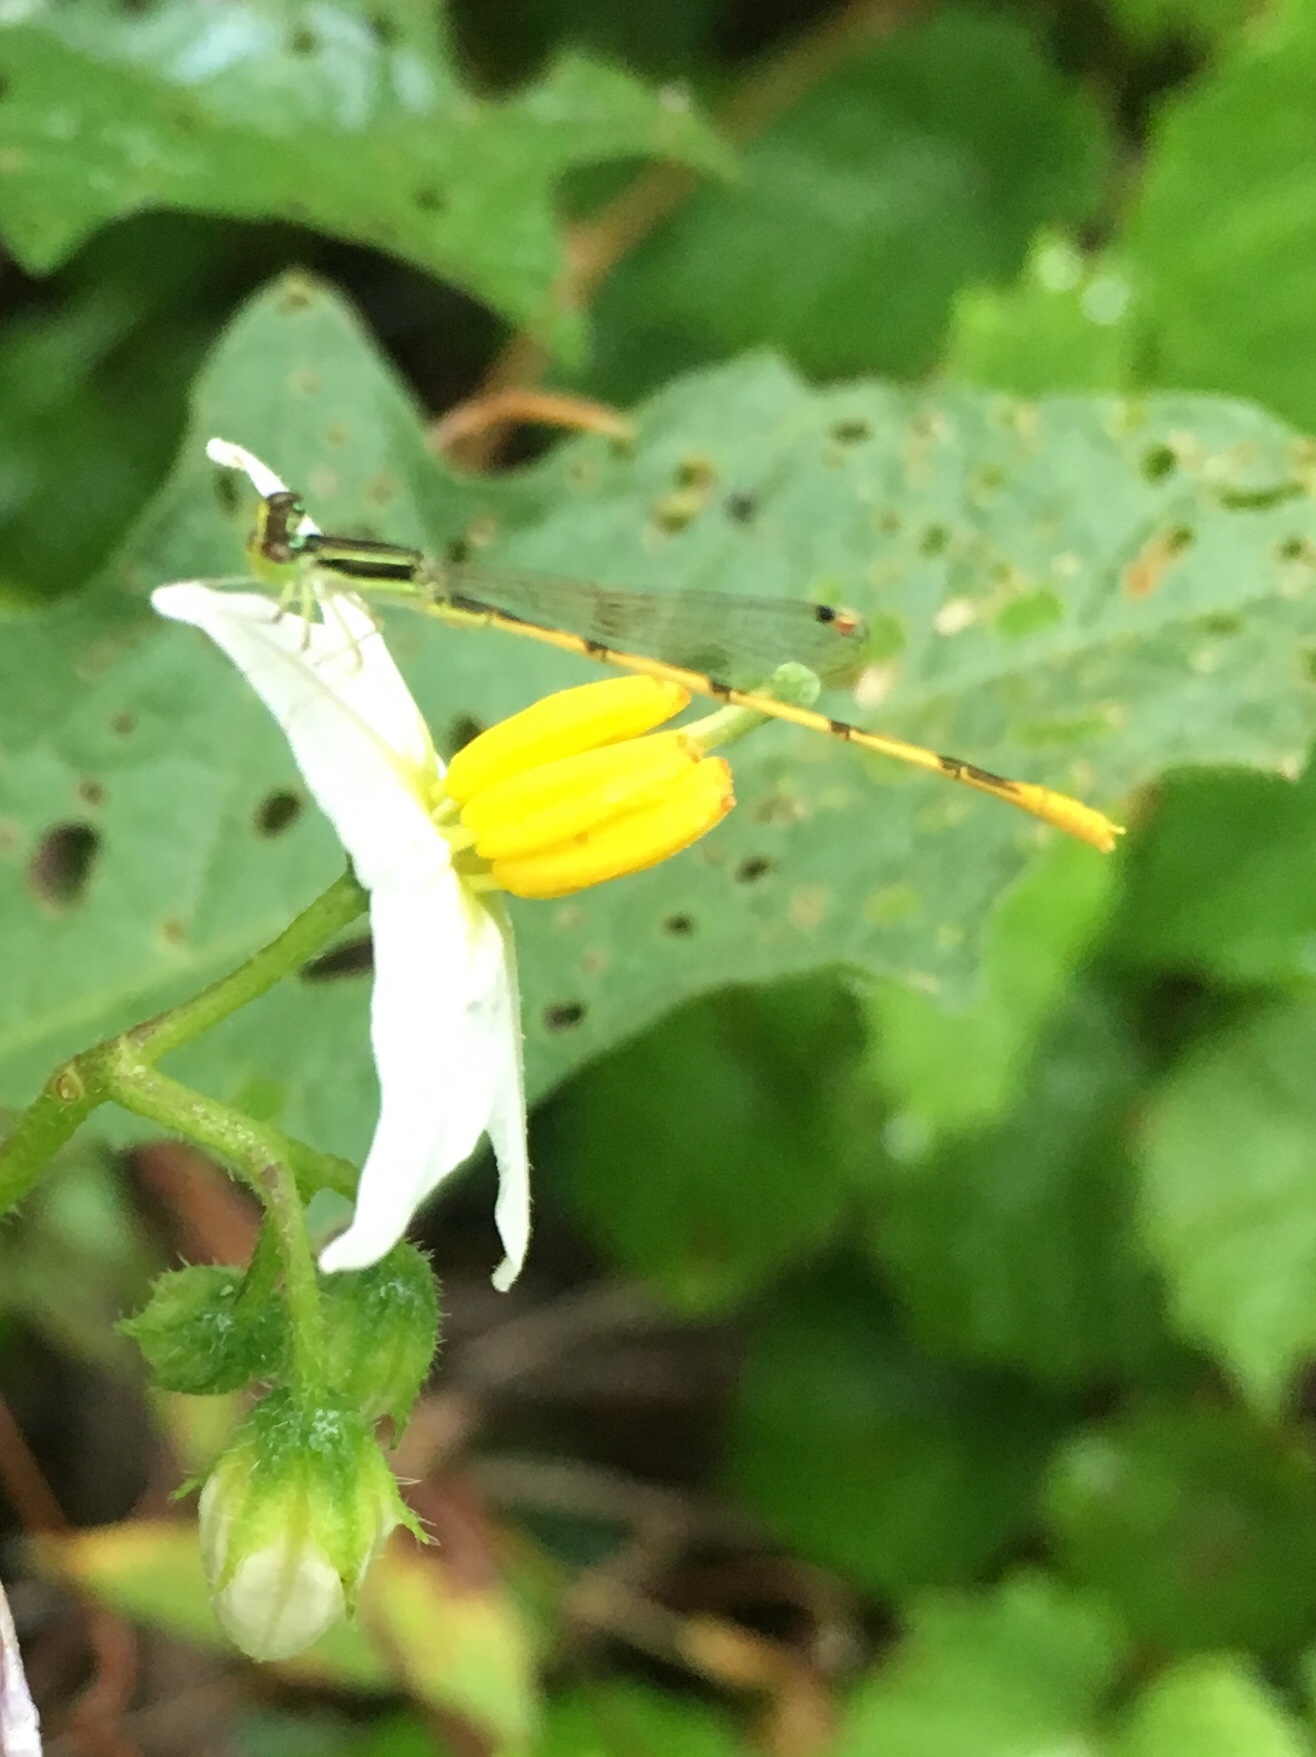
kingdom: Animalia
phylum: Arthropoda
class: Insecta
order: Odonata
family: Coenagrionidae
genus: Ischnura
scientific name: Ischnura hastata
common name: Citrine forktail
